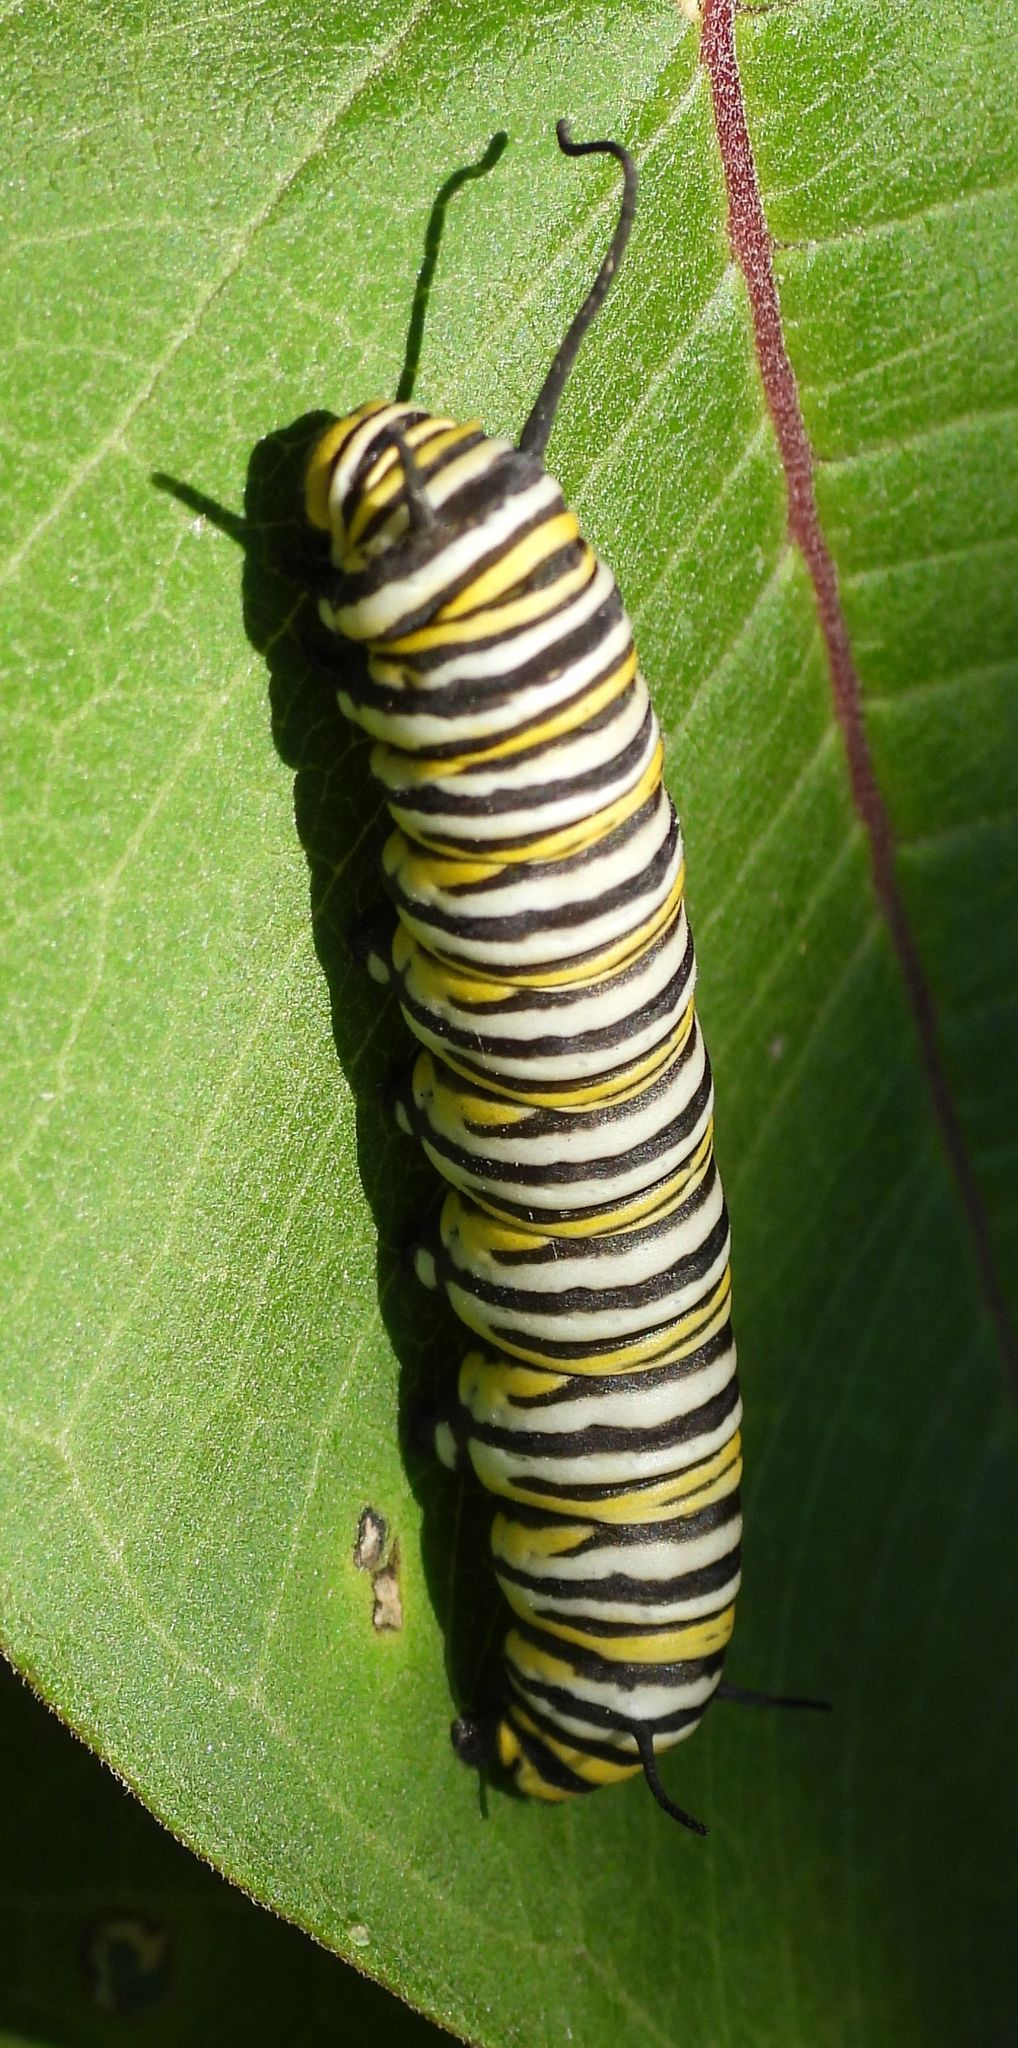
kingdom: Animalia
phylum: Arthropoda
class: Insecta
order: Lepidoptera
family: Nymphalidae
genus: Danaus
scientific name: Danaus plexippus
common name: Monarch
